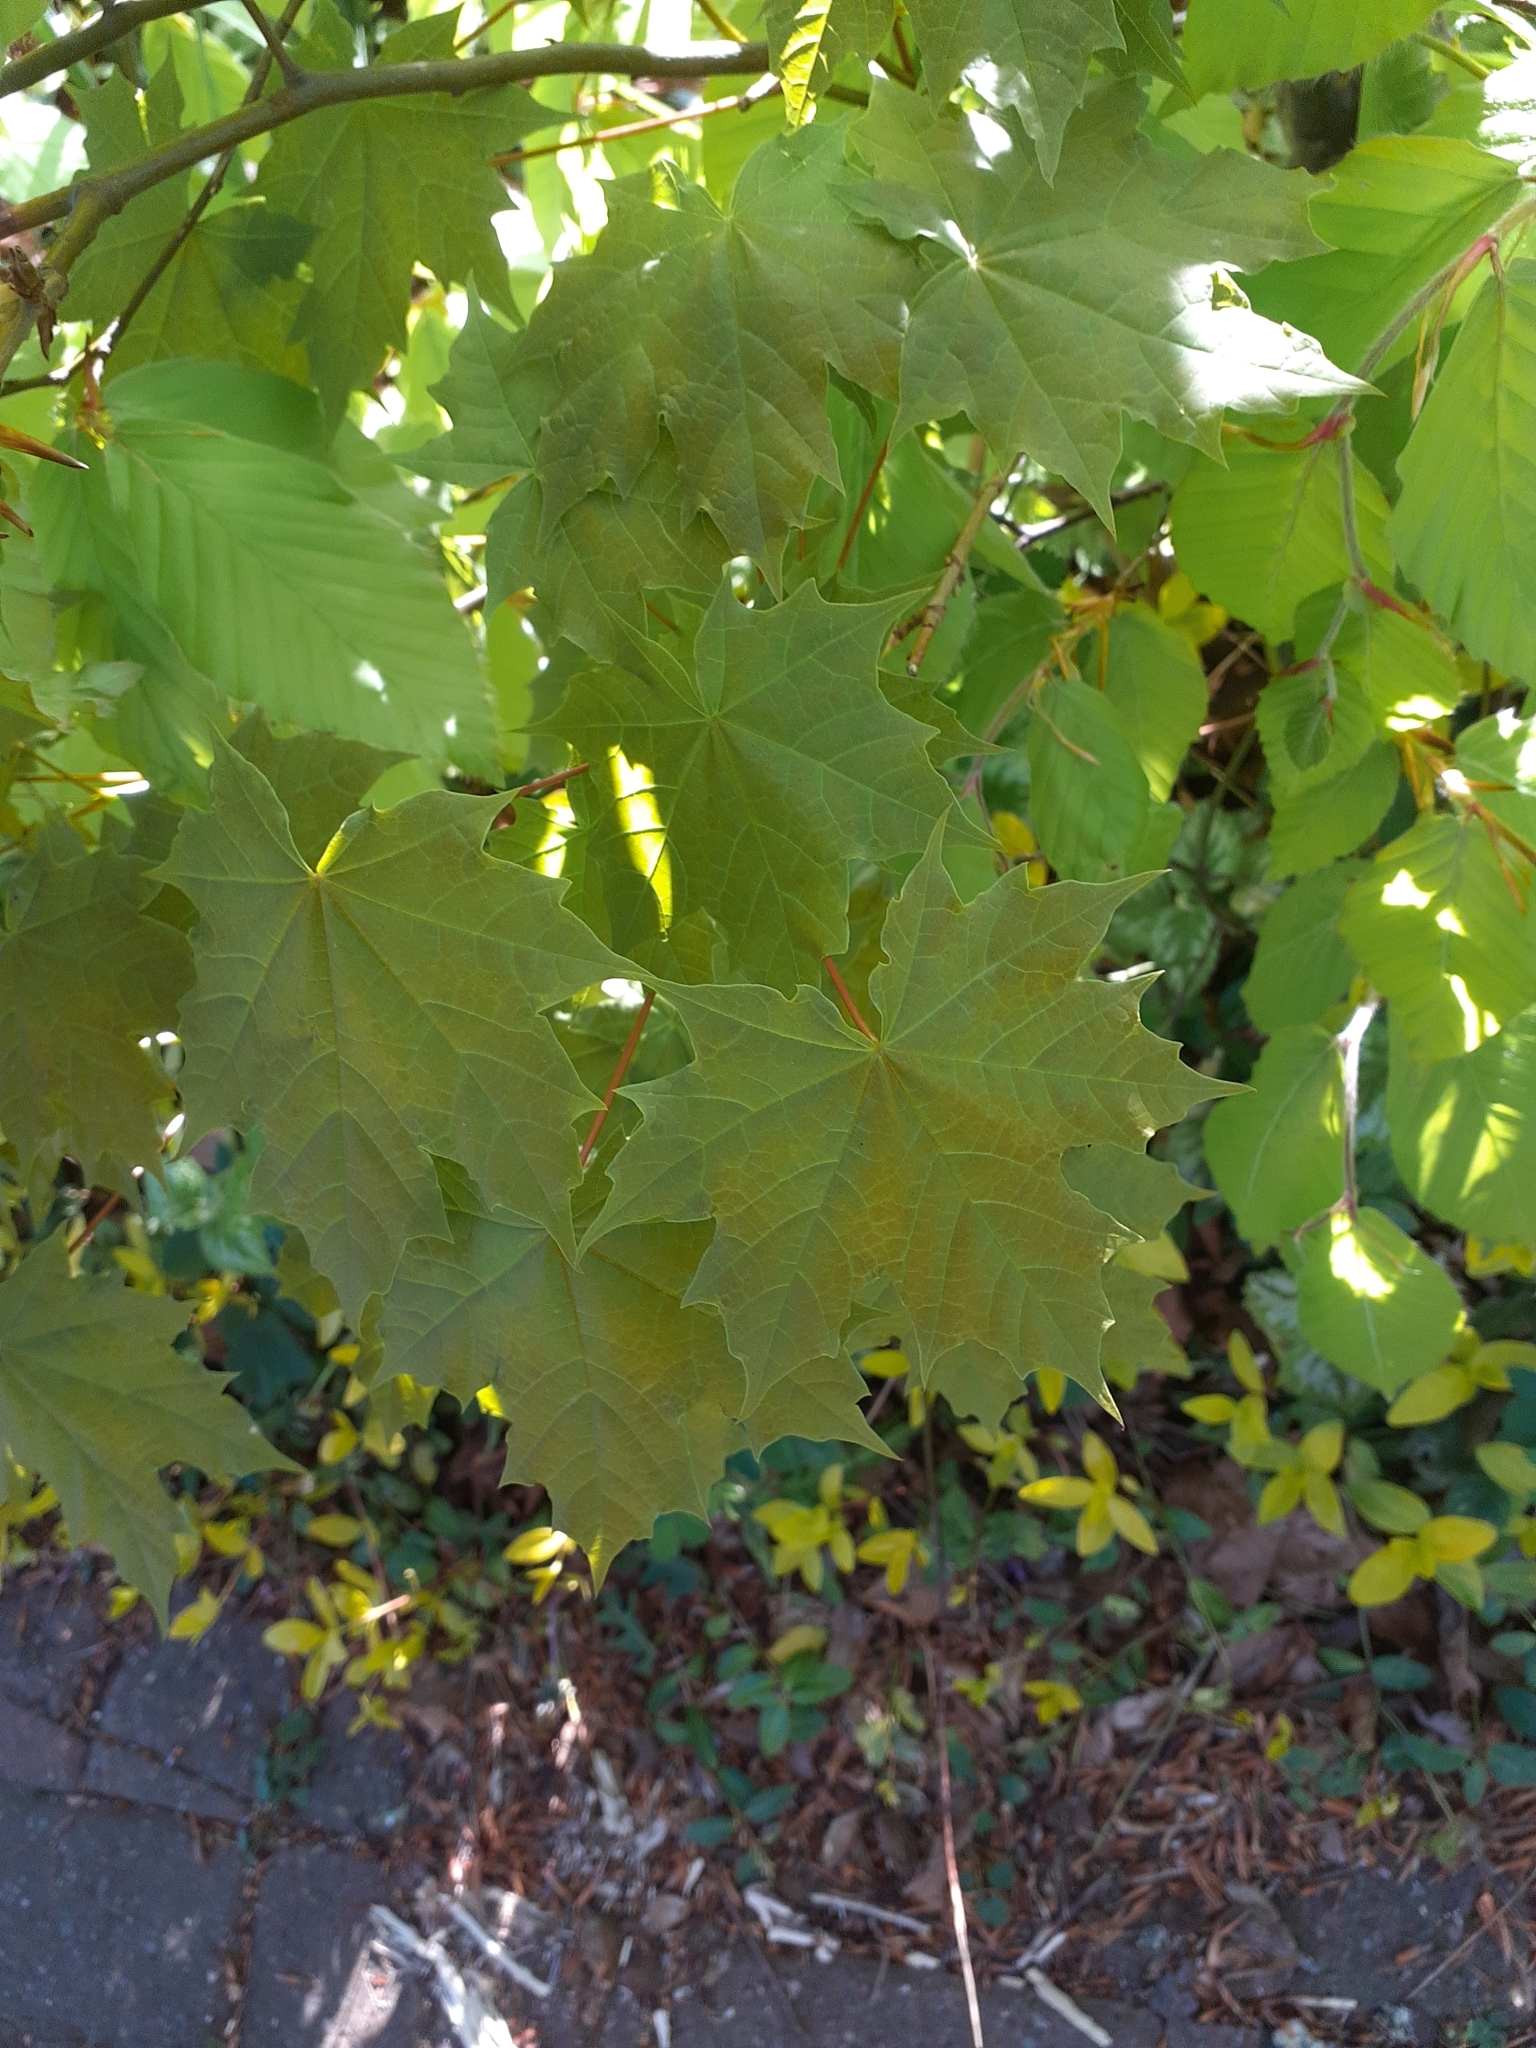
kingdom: Plantae
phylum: Tracheophyta
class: Magnoliopsida
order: Sapindales
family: Sapindaceae
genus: Acer
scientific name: Acer platanoides
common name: Norway maple
